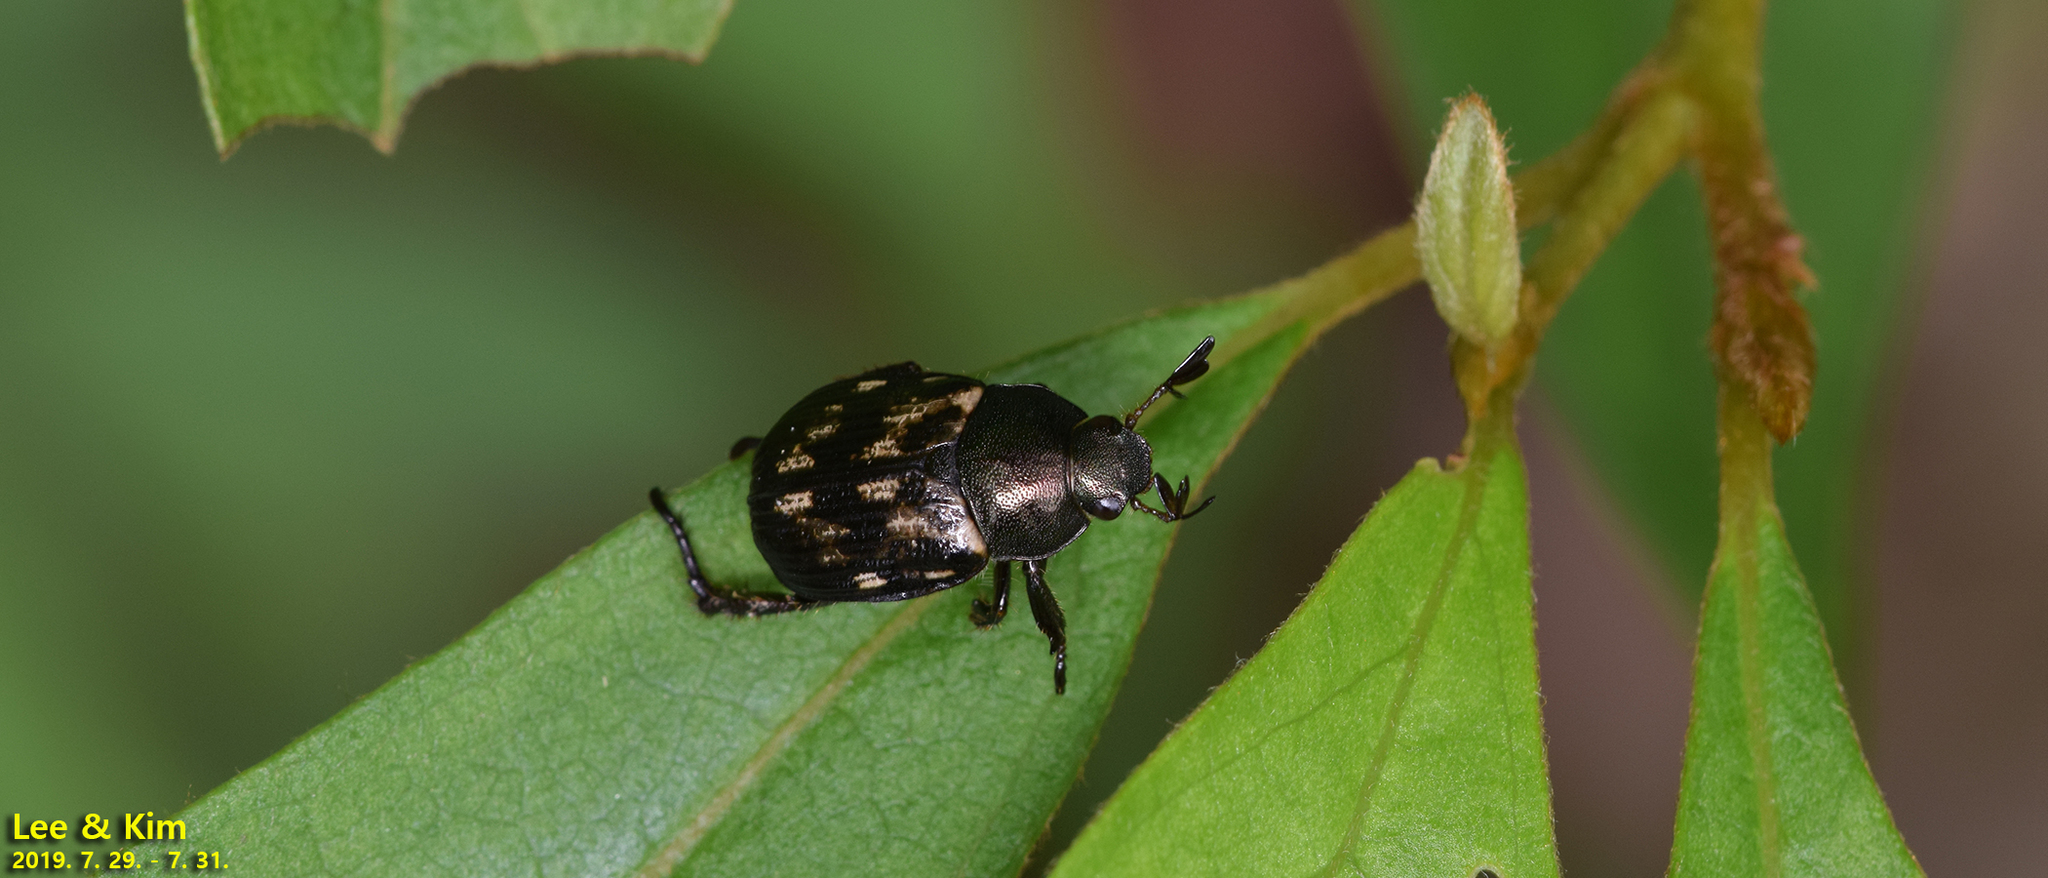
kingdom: Animalia
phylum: Arthropoda
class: Insecta
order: Coleoptera
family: Scarabaeidae
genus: Exomala
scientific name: Exomala orientalis
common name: Oriental beetle
